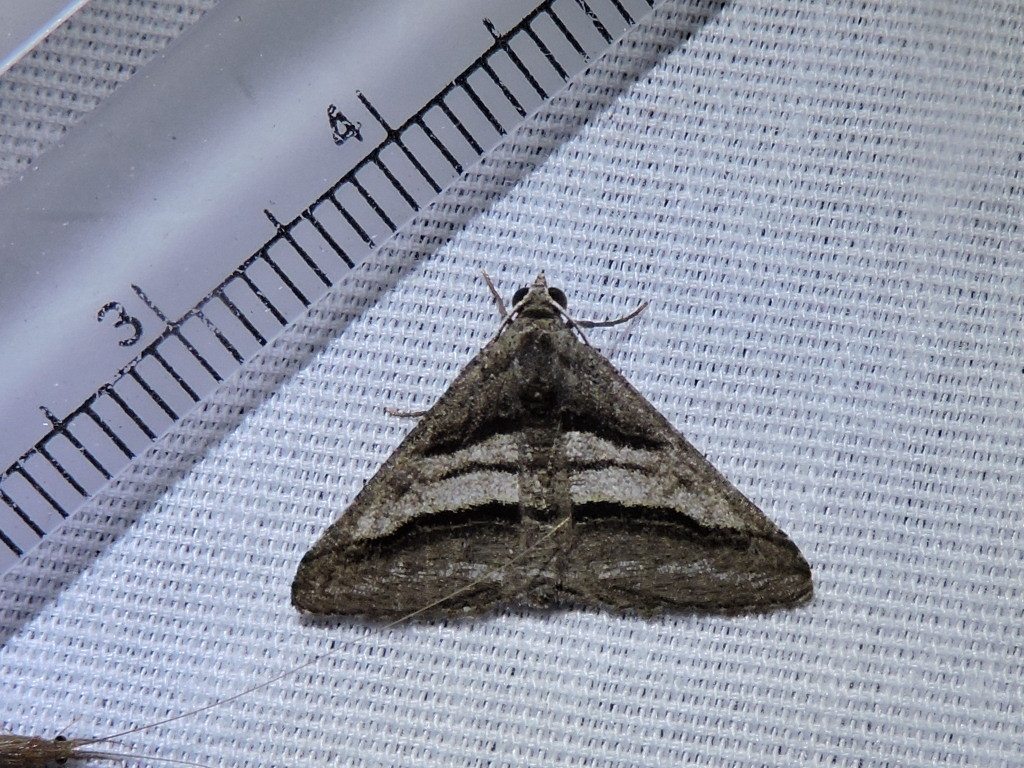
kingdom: Animalia
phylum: Arthropoda
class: Insecta
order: Lepidoptera
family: Geometridae
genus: Digrammia
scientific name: Digrammia atrofasciata
